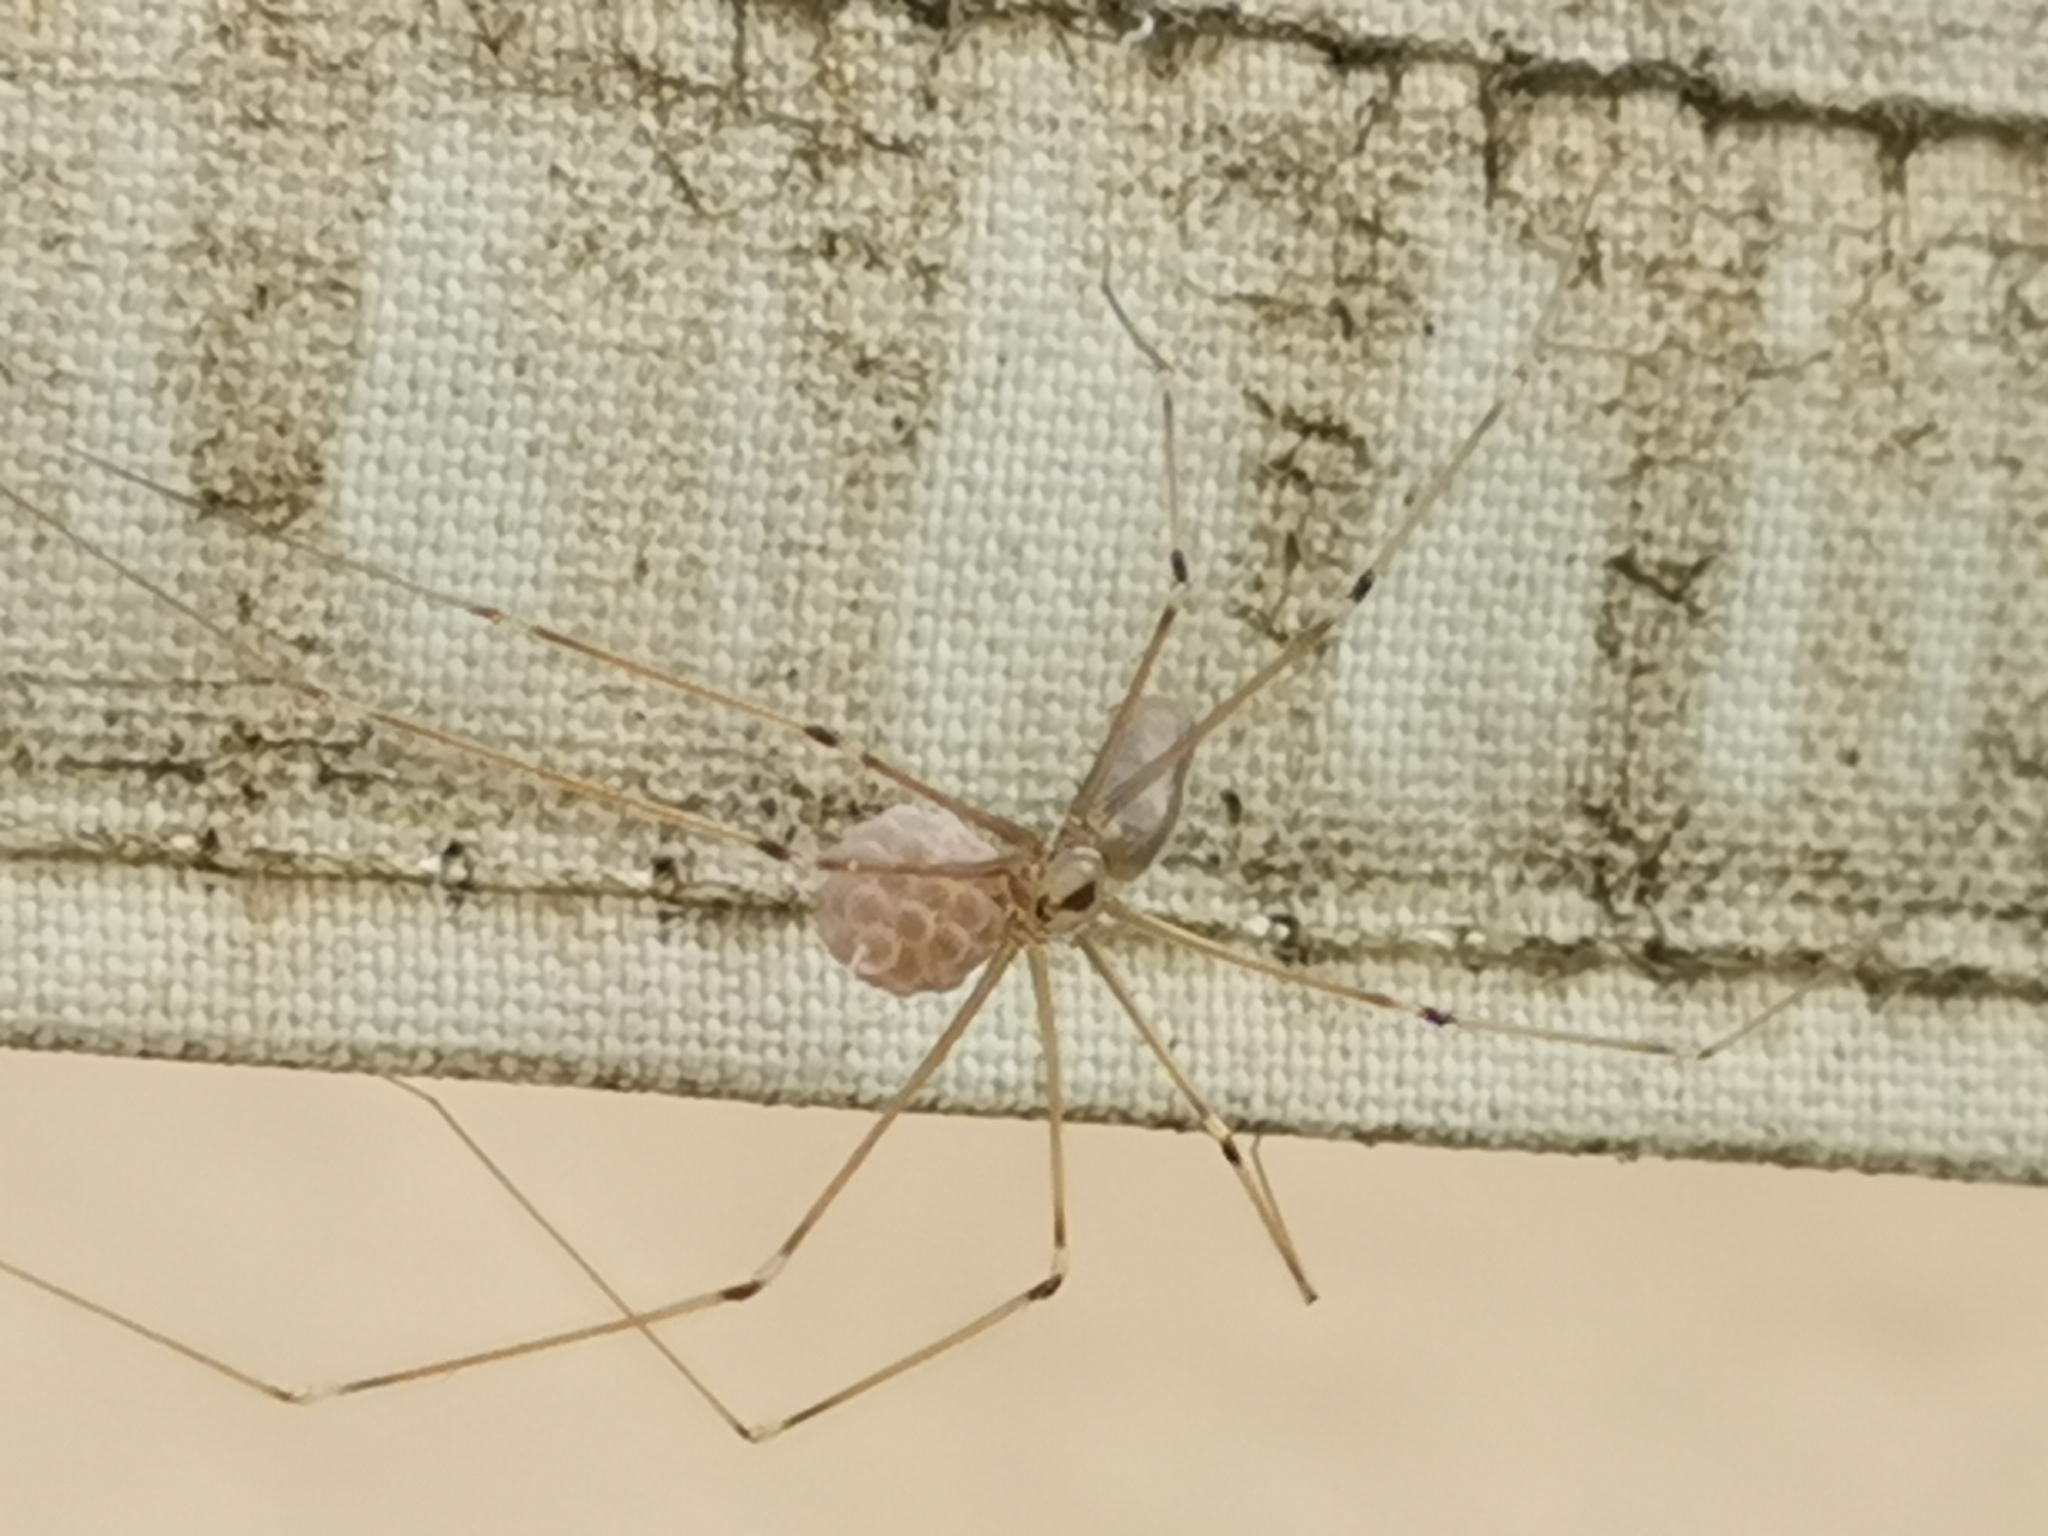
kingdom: Animalia
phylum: Arthropoda
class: Arachnida
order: Araneae
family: Pholcidae
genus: Pholcus
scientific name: Pholcus phalangioides
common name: Longbodied cellar spider
